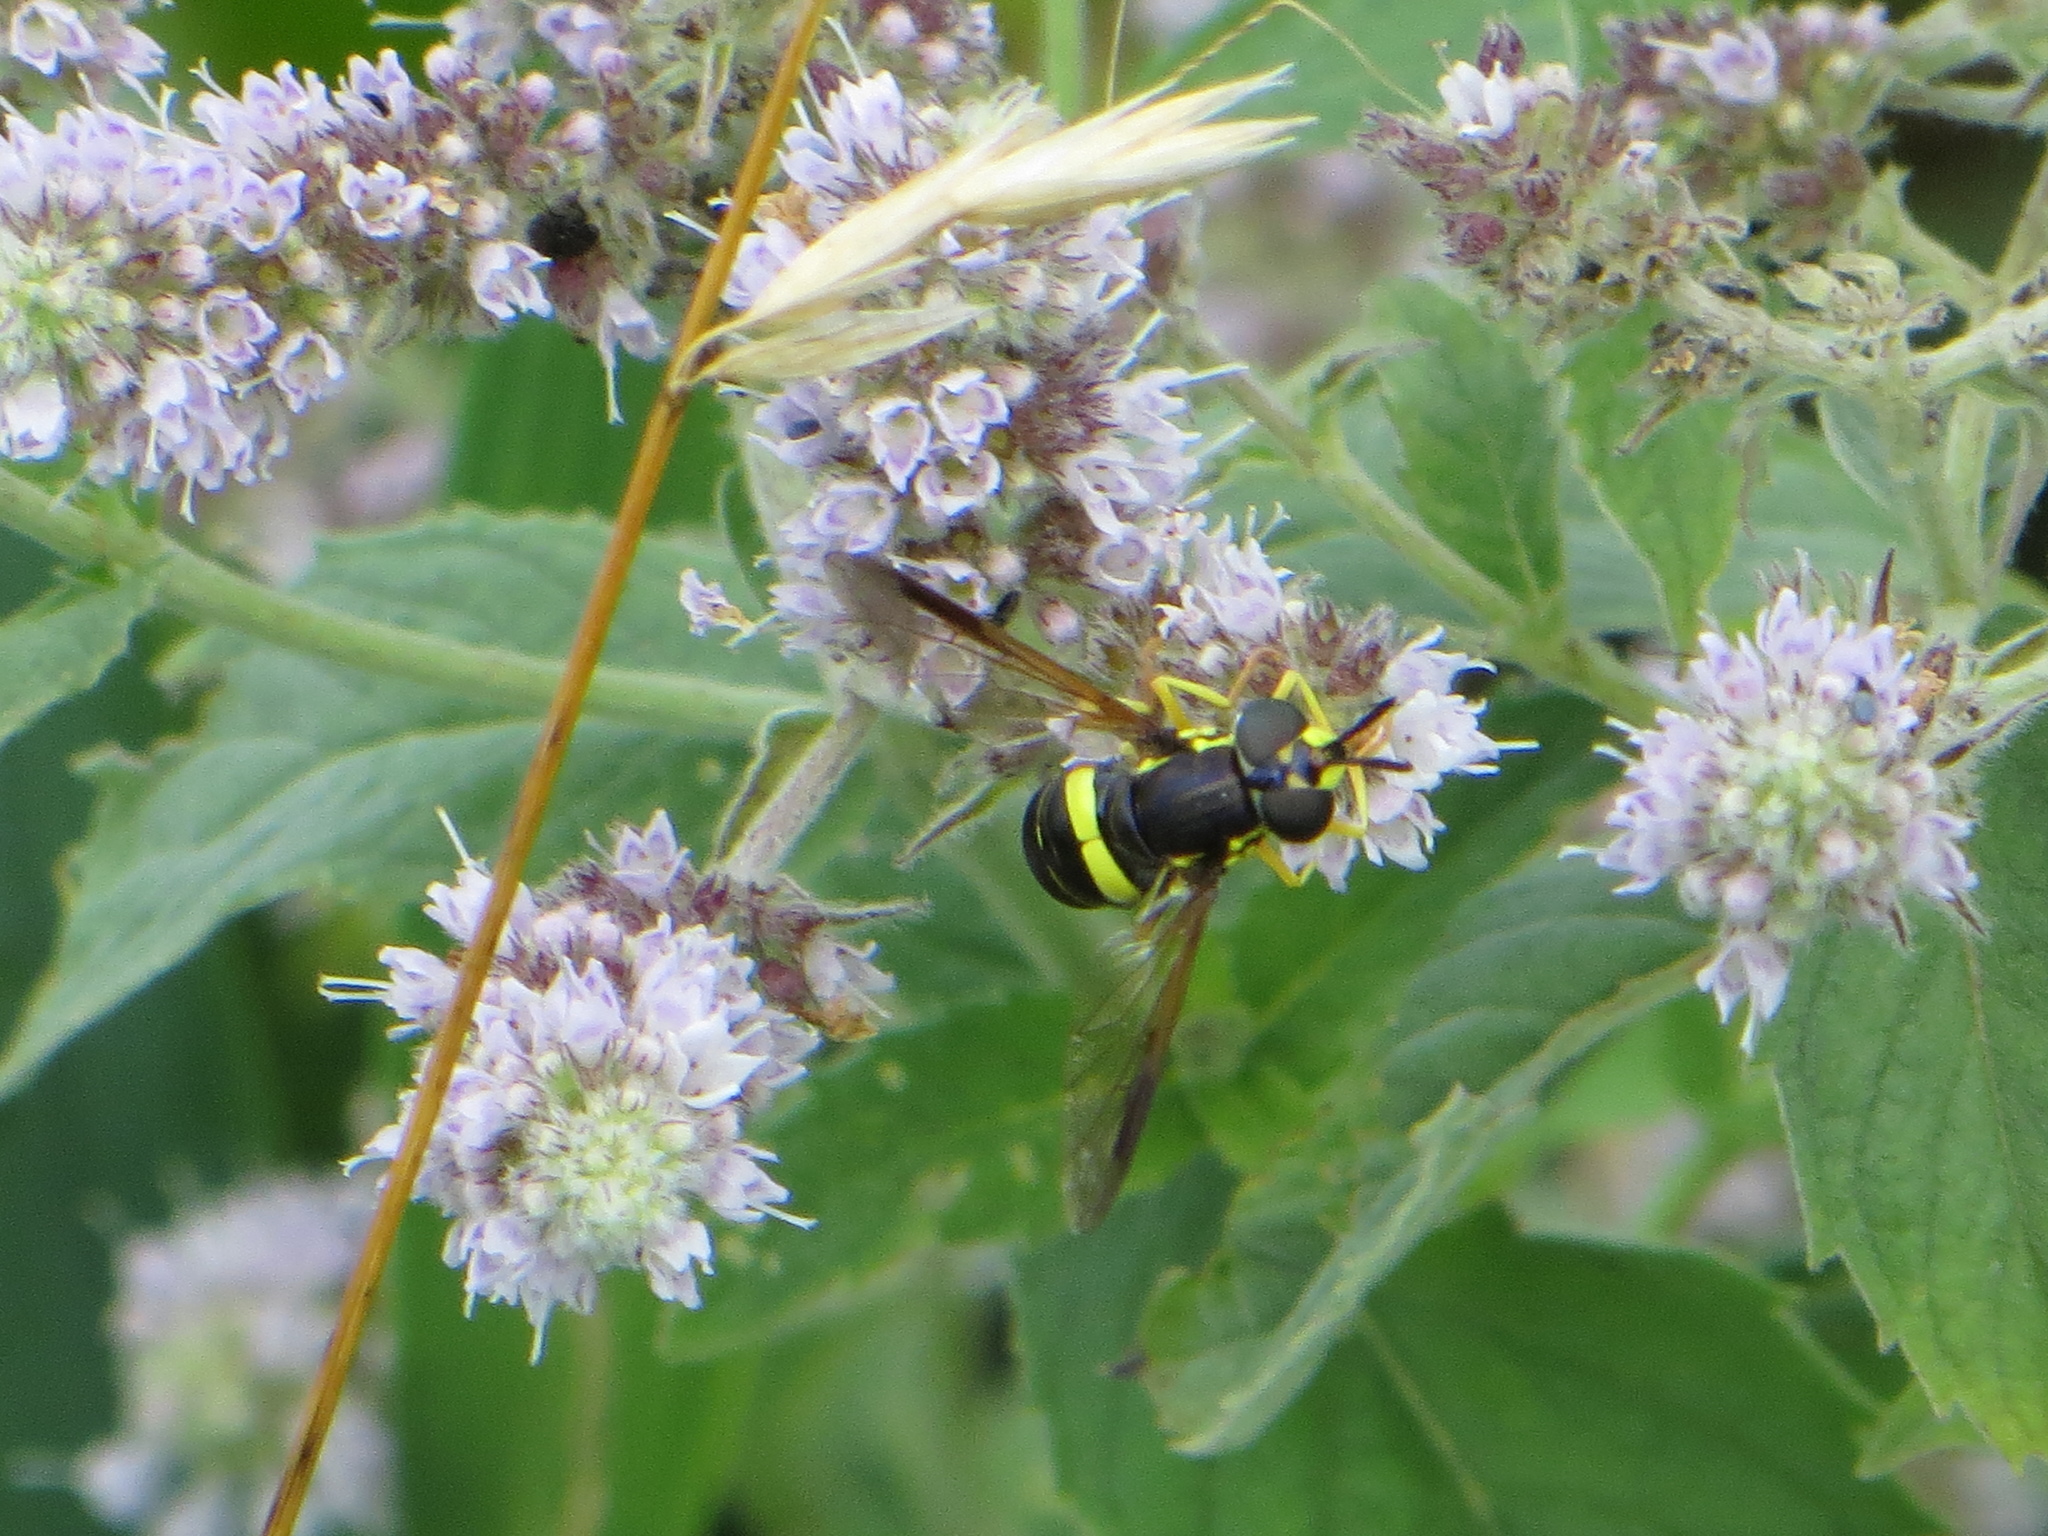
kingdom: Animalia
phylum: Arthropoda
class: Insecta
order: Diptera
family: Syrphidae
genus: Chrysotoxum
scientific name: Chrysotoxum bicincta
